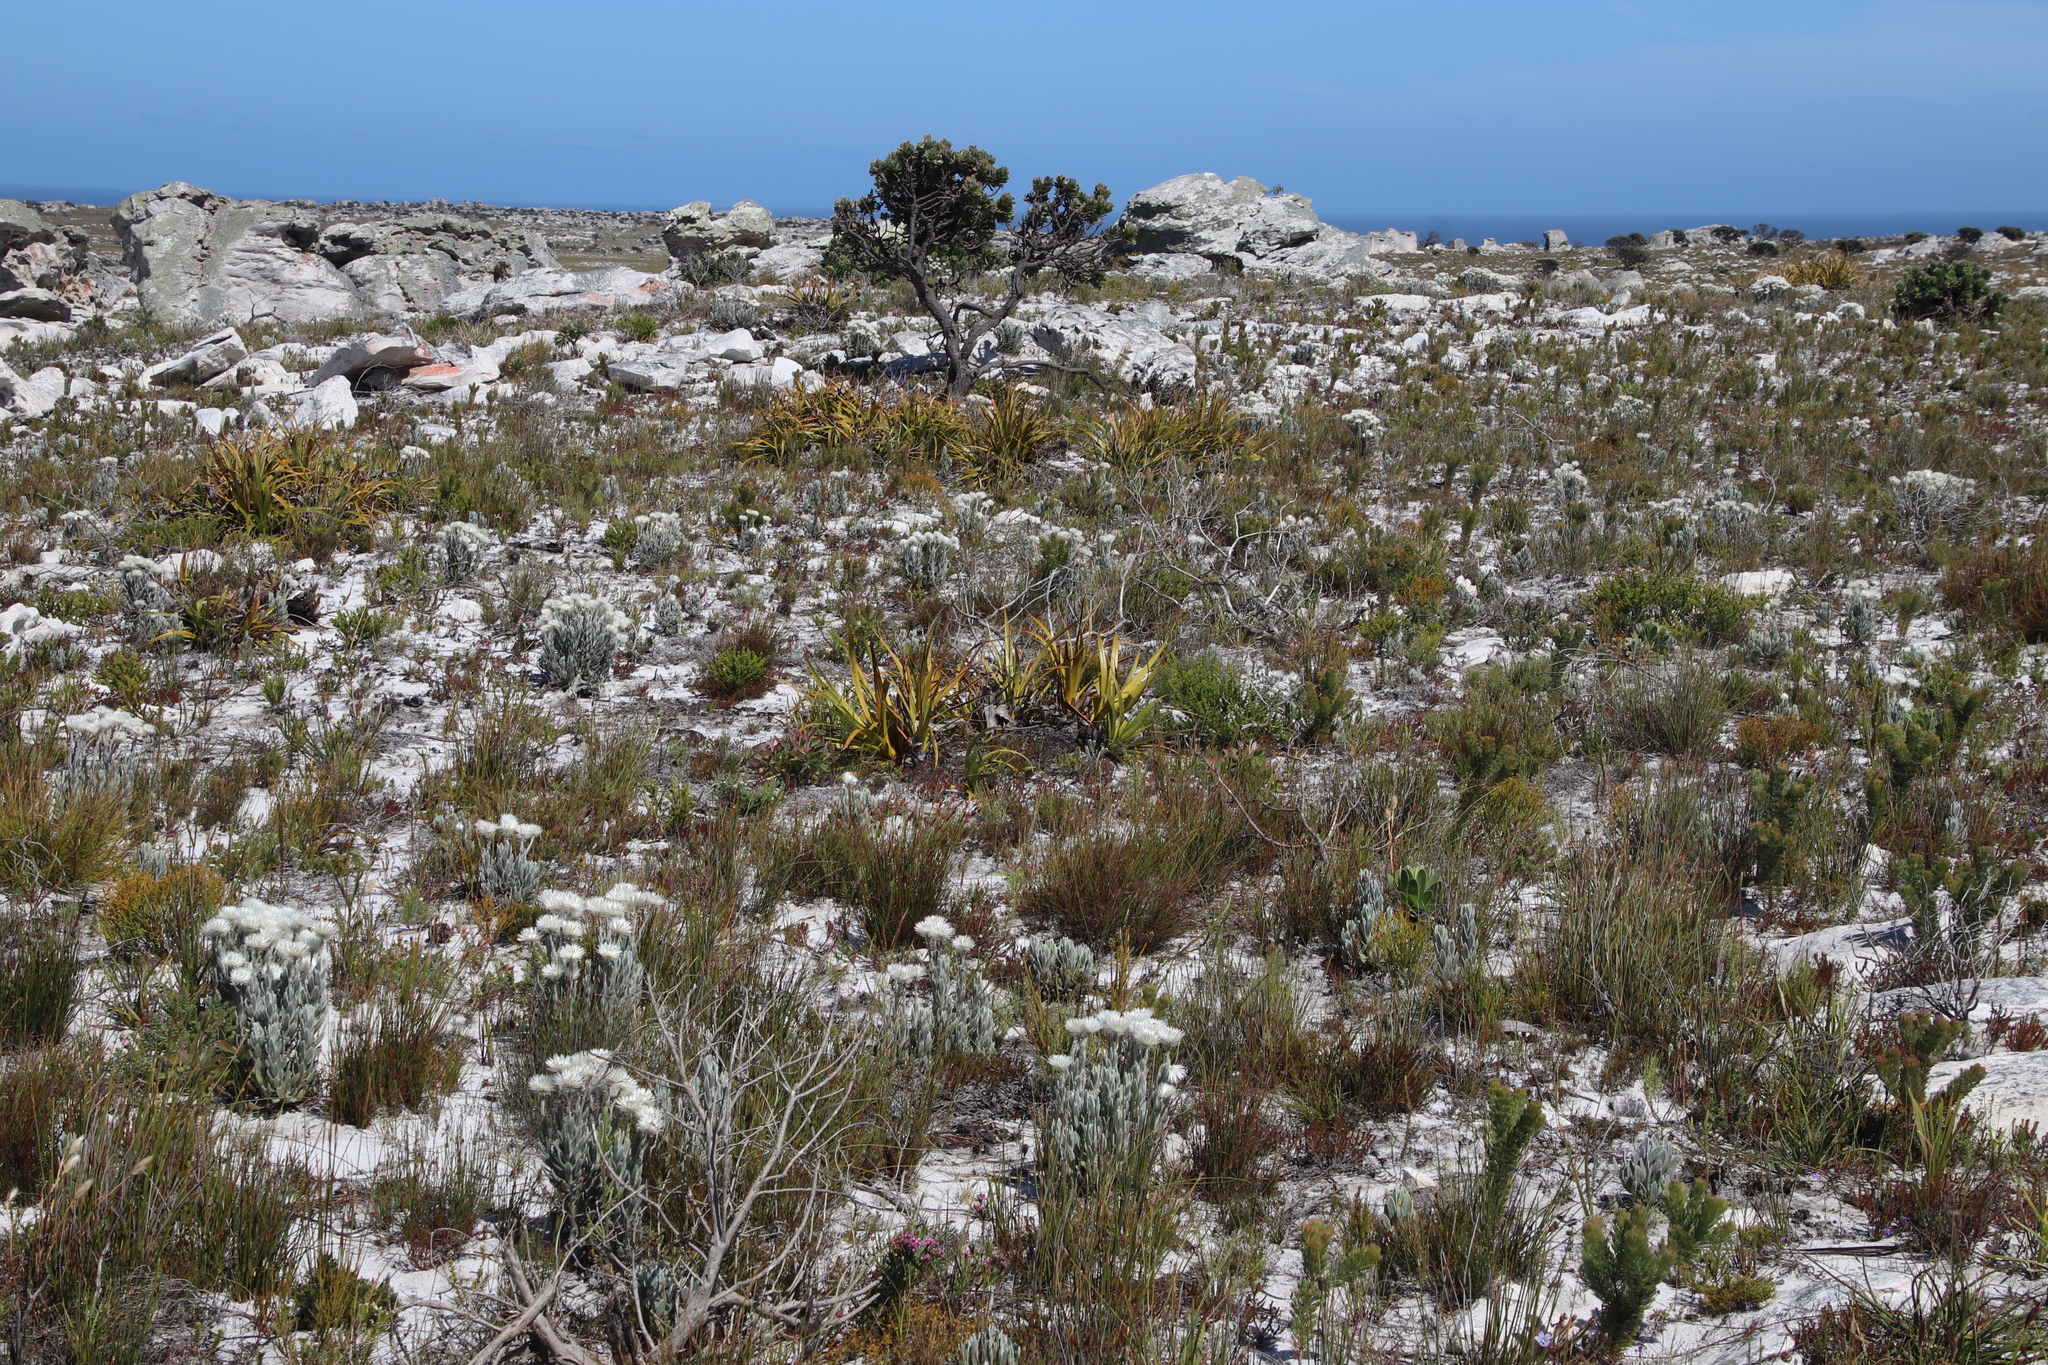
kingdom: Plantae
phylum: Tracheophyta
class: Liliopsida
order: Poales
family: Cyperaceae
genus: Tetraria
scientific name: Tetraria thermalis
